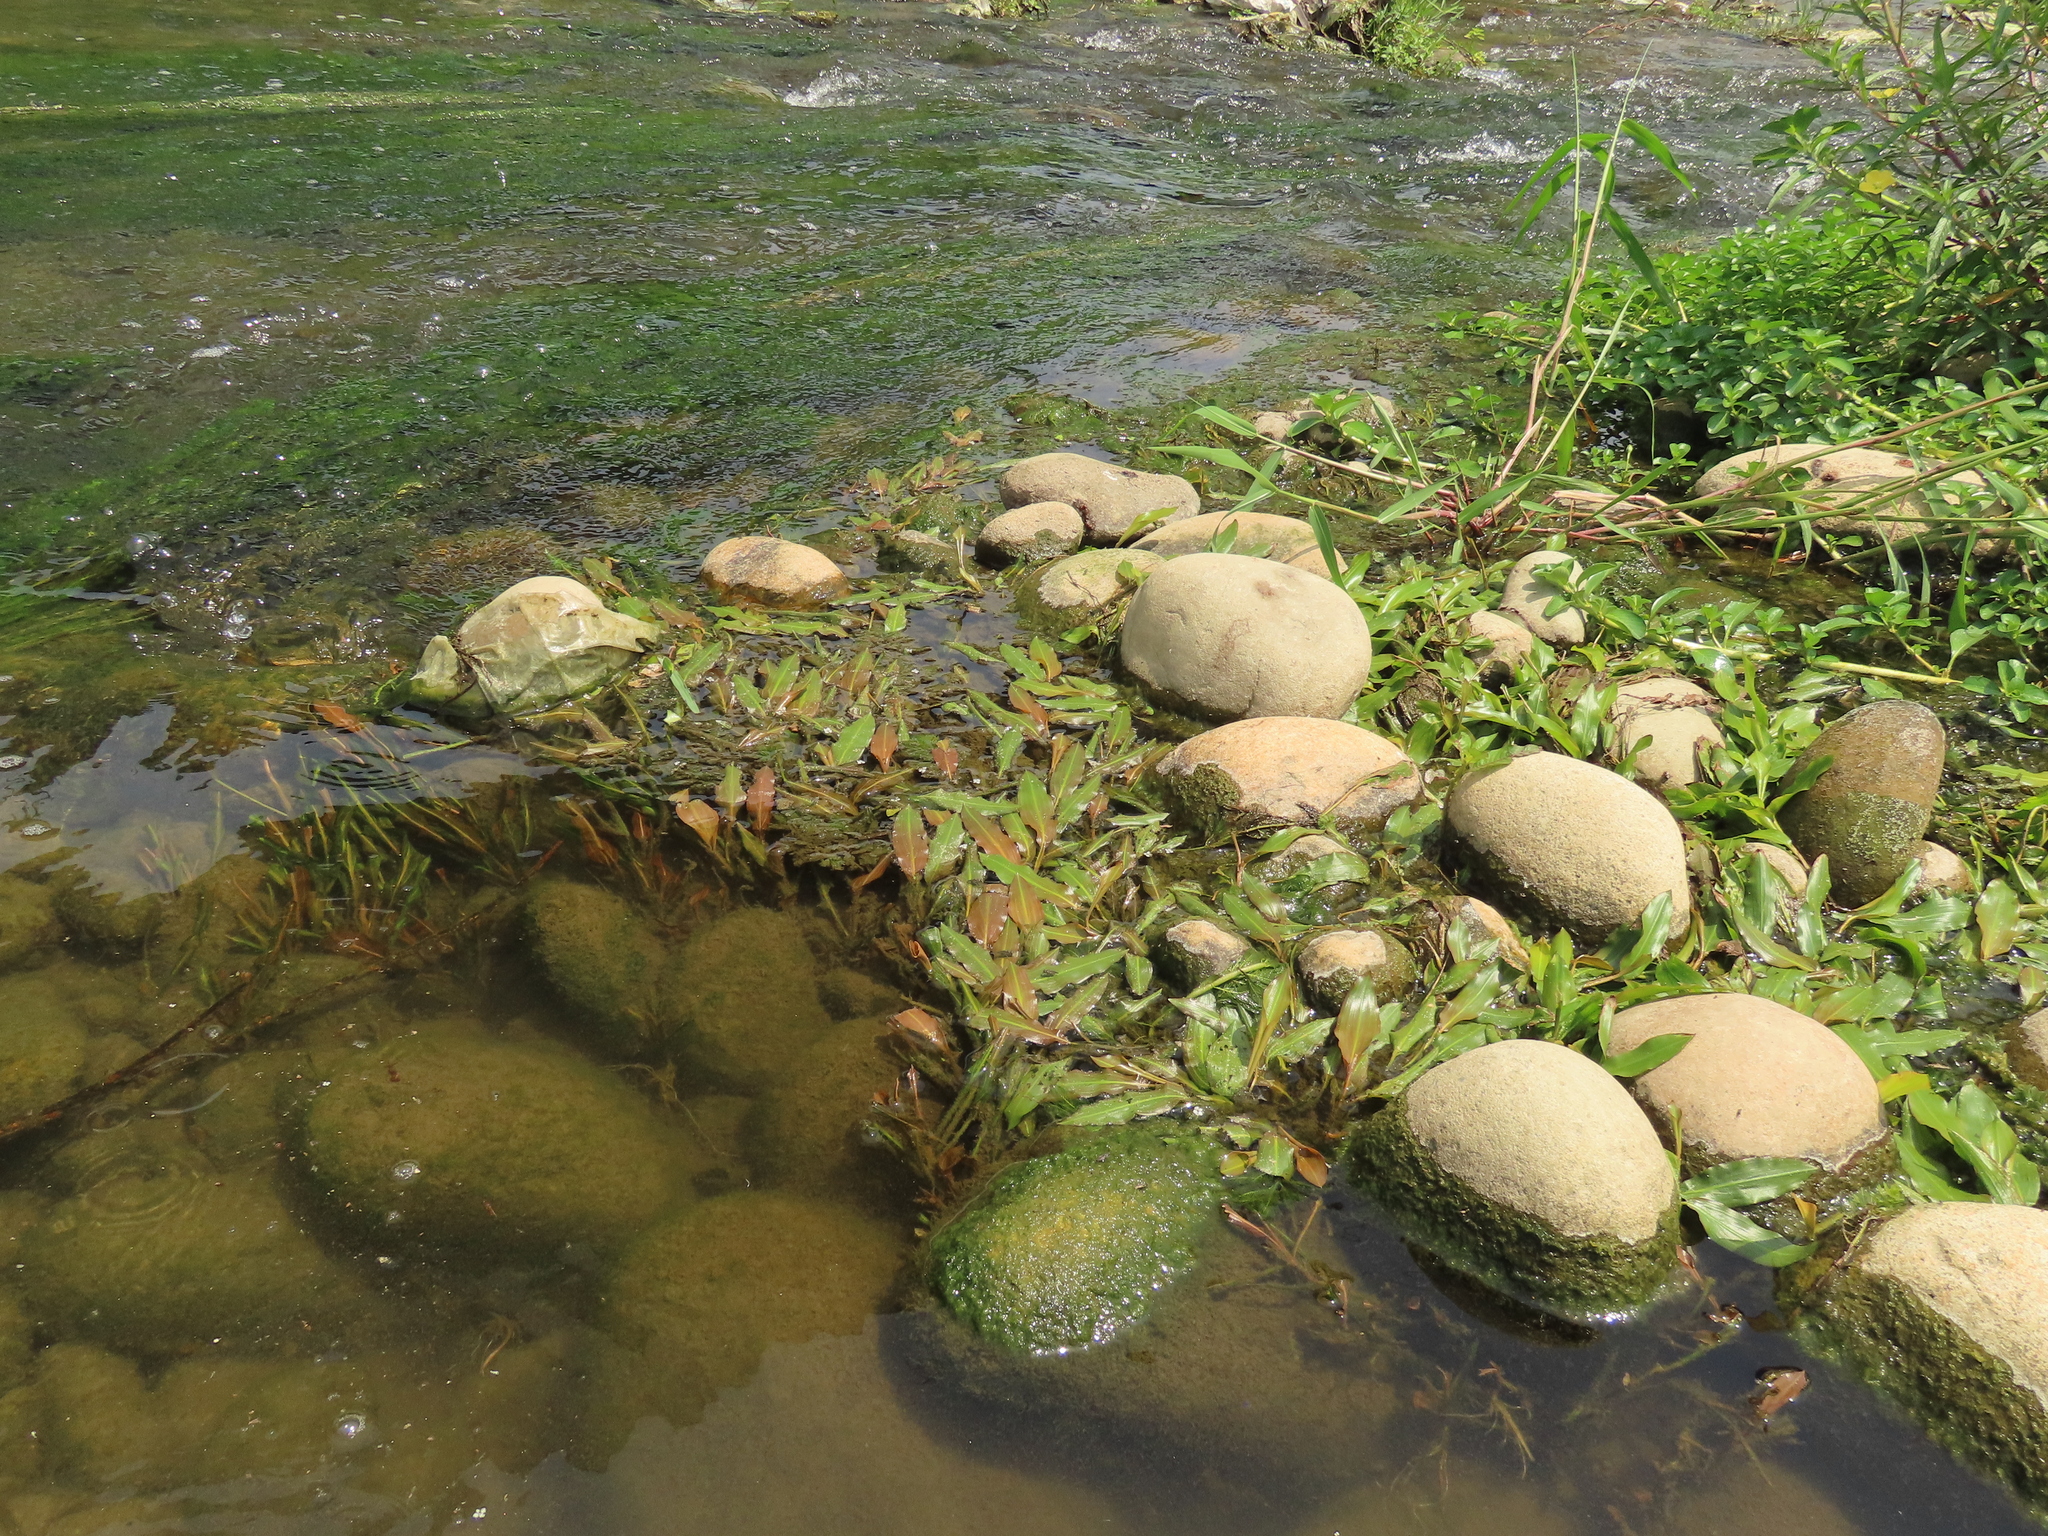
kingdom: Plantae
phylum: Tracheophyta
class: Liliopsida
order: Alismatales
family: Potamogetonaceae
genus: Potamogeton
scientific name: Potamogeton wrightii
